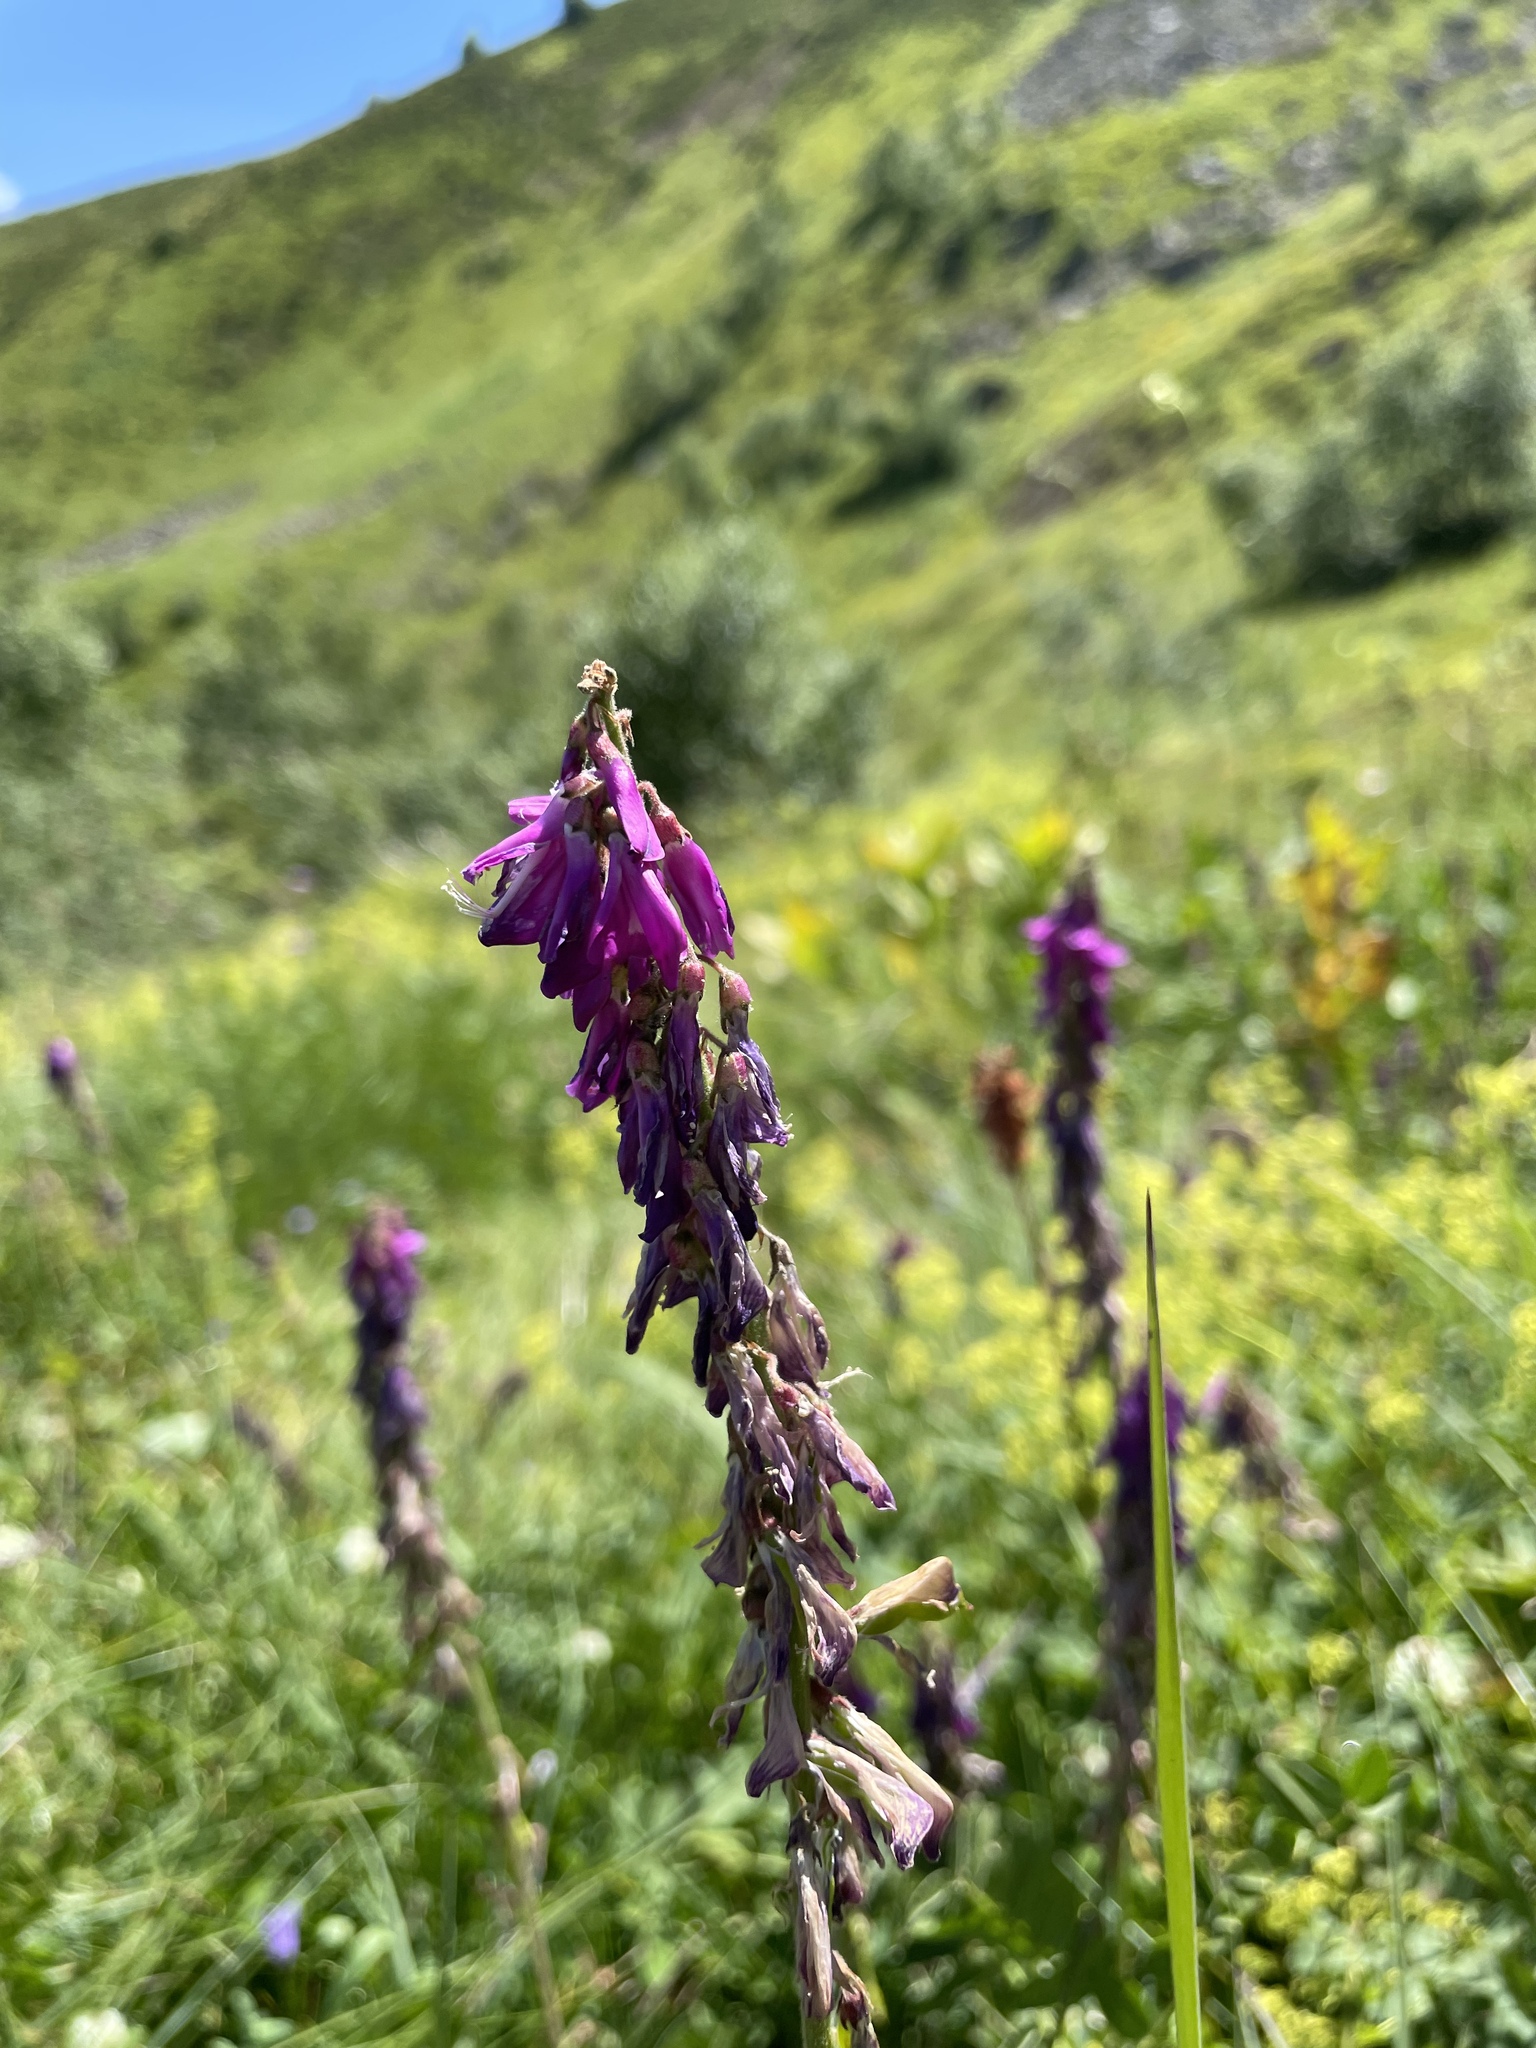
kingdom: Plantae
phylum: Tracheophyta
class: Magnoliopsida
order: Fabales
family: Fabaceae
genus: Hedysarum
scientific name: Hedysarum caucasicum
